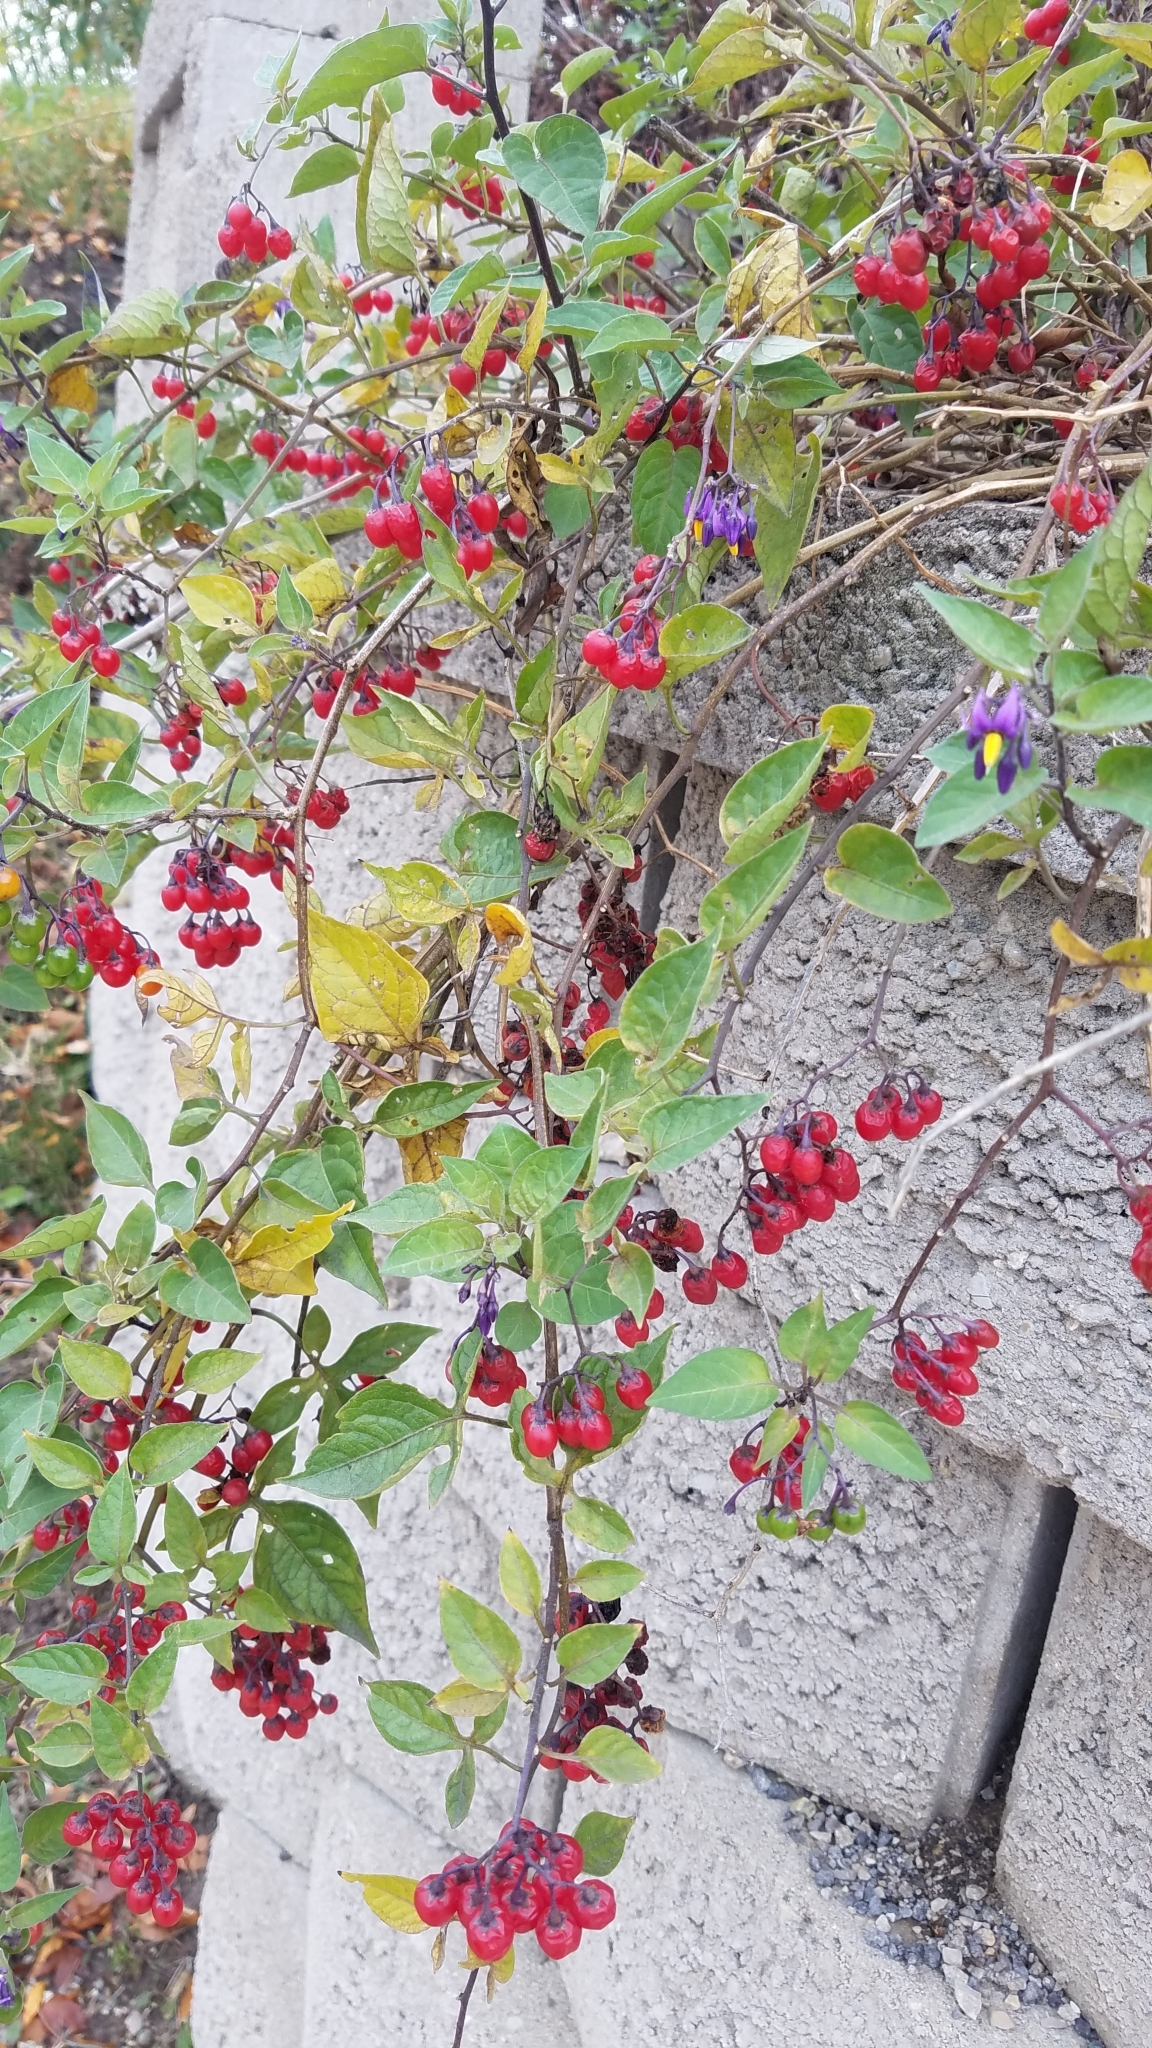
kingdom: Plantae
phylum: Tracheophyta
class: Magnoliopsida
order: Solanales
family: Solanaceae
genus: Solanum
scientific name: Solanum dulcamara
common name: Climbing nightshade
